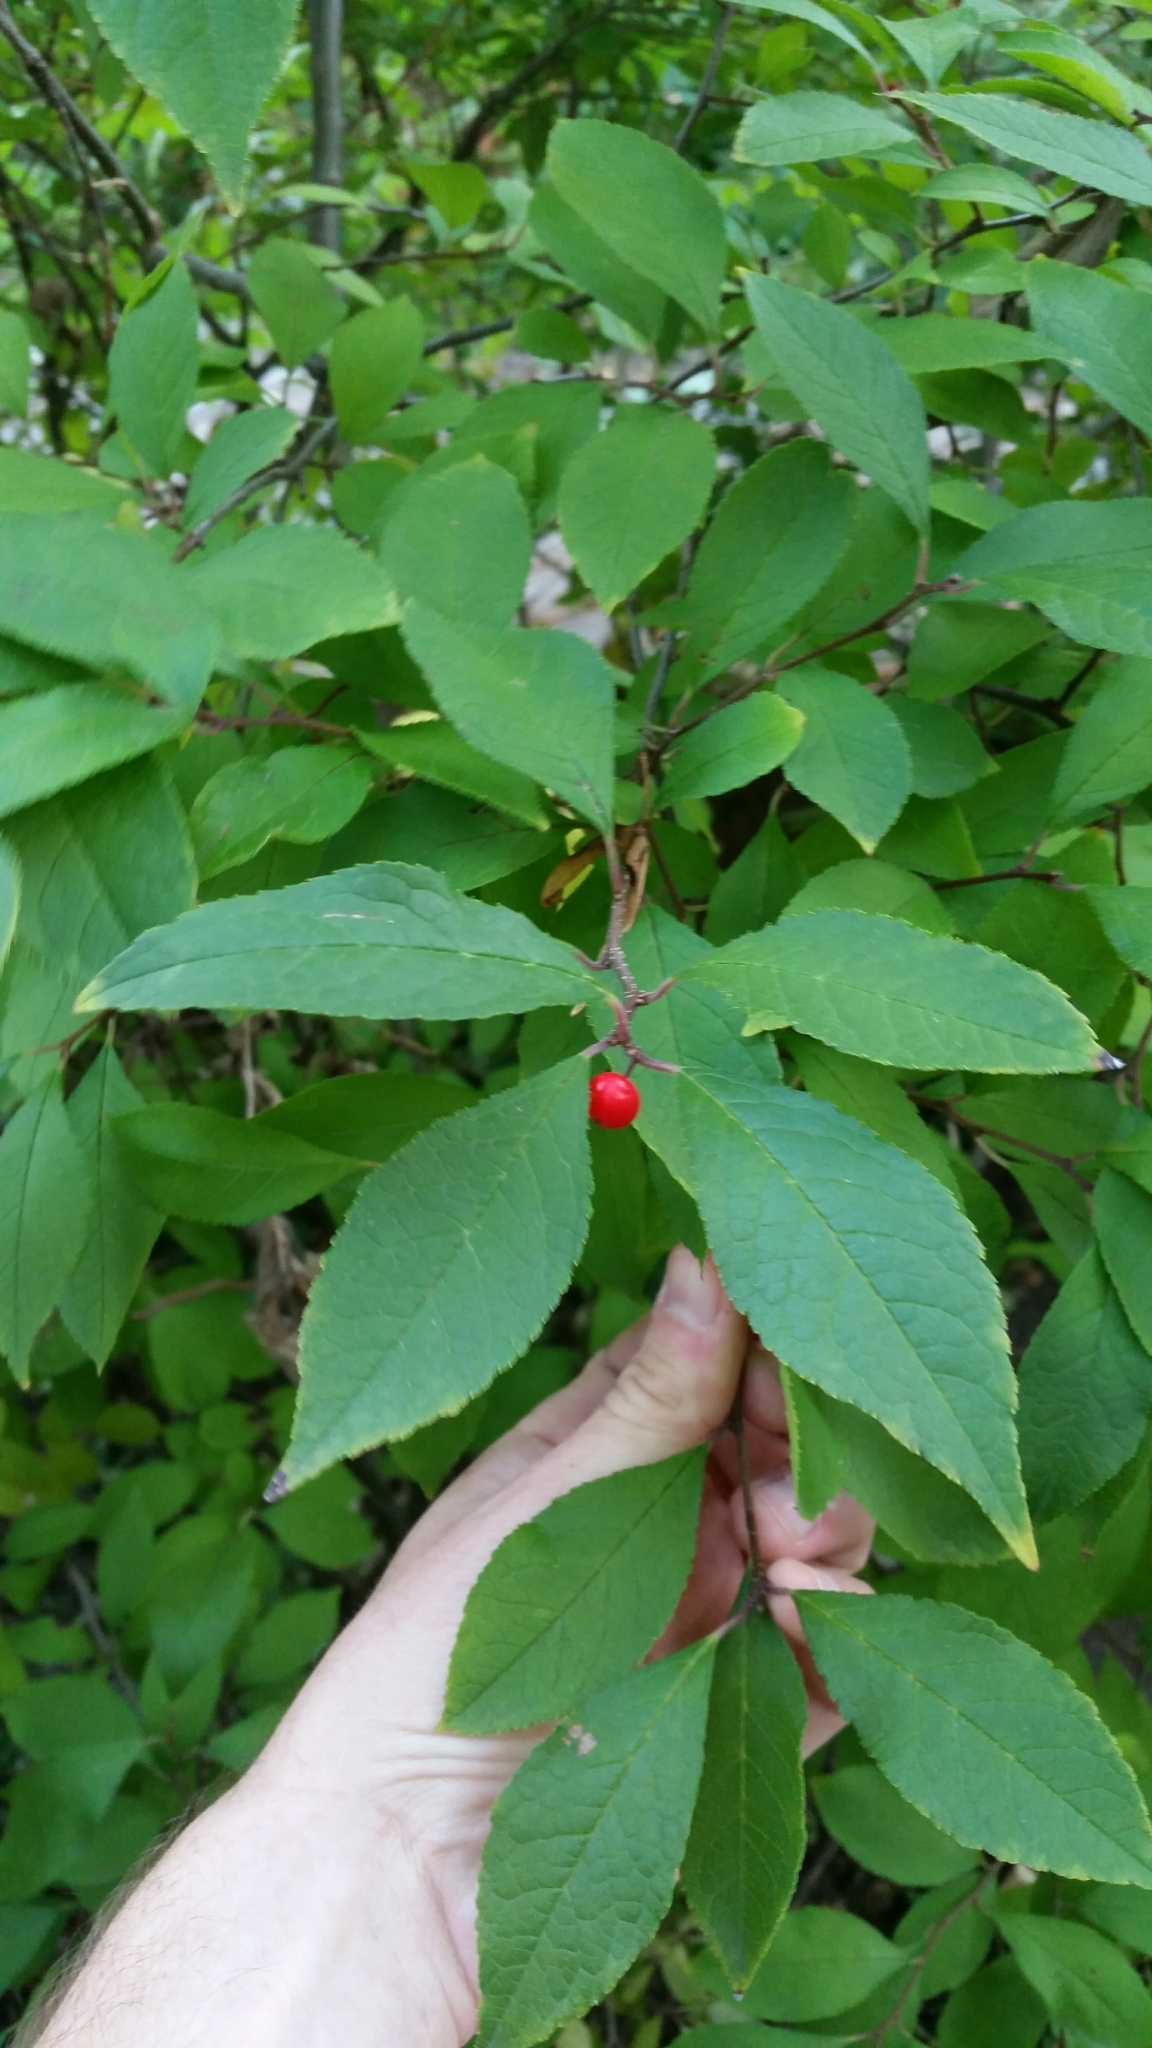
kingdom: Plantae
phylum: Tracheophyta
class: Magnoliopsida
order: Aquifoliales
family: Aquifoliaceae
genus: Ilex
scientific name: Ilex verticillata
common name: Virginia winterberry
